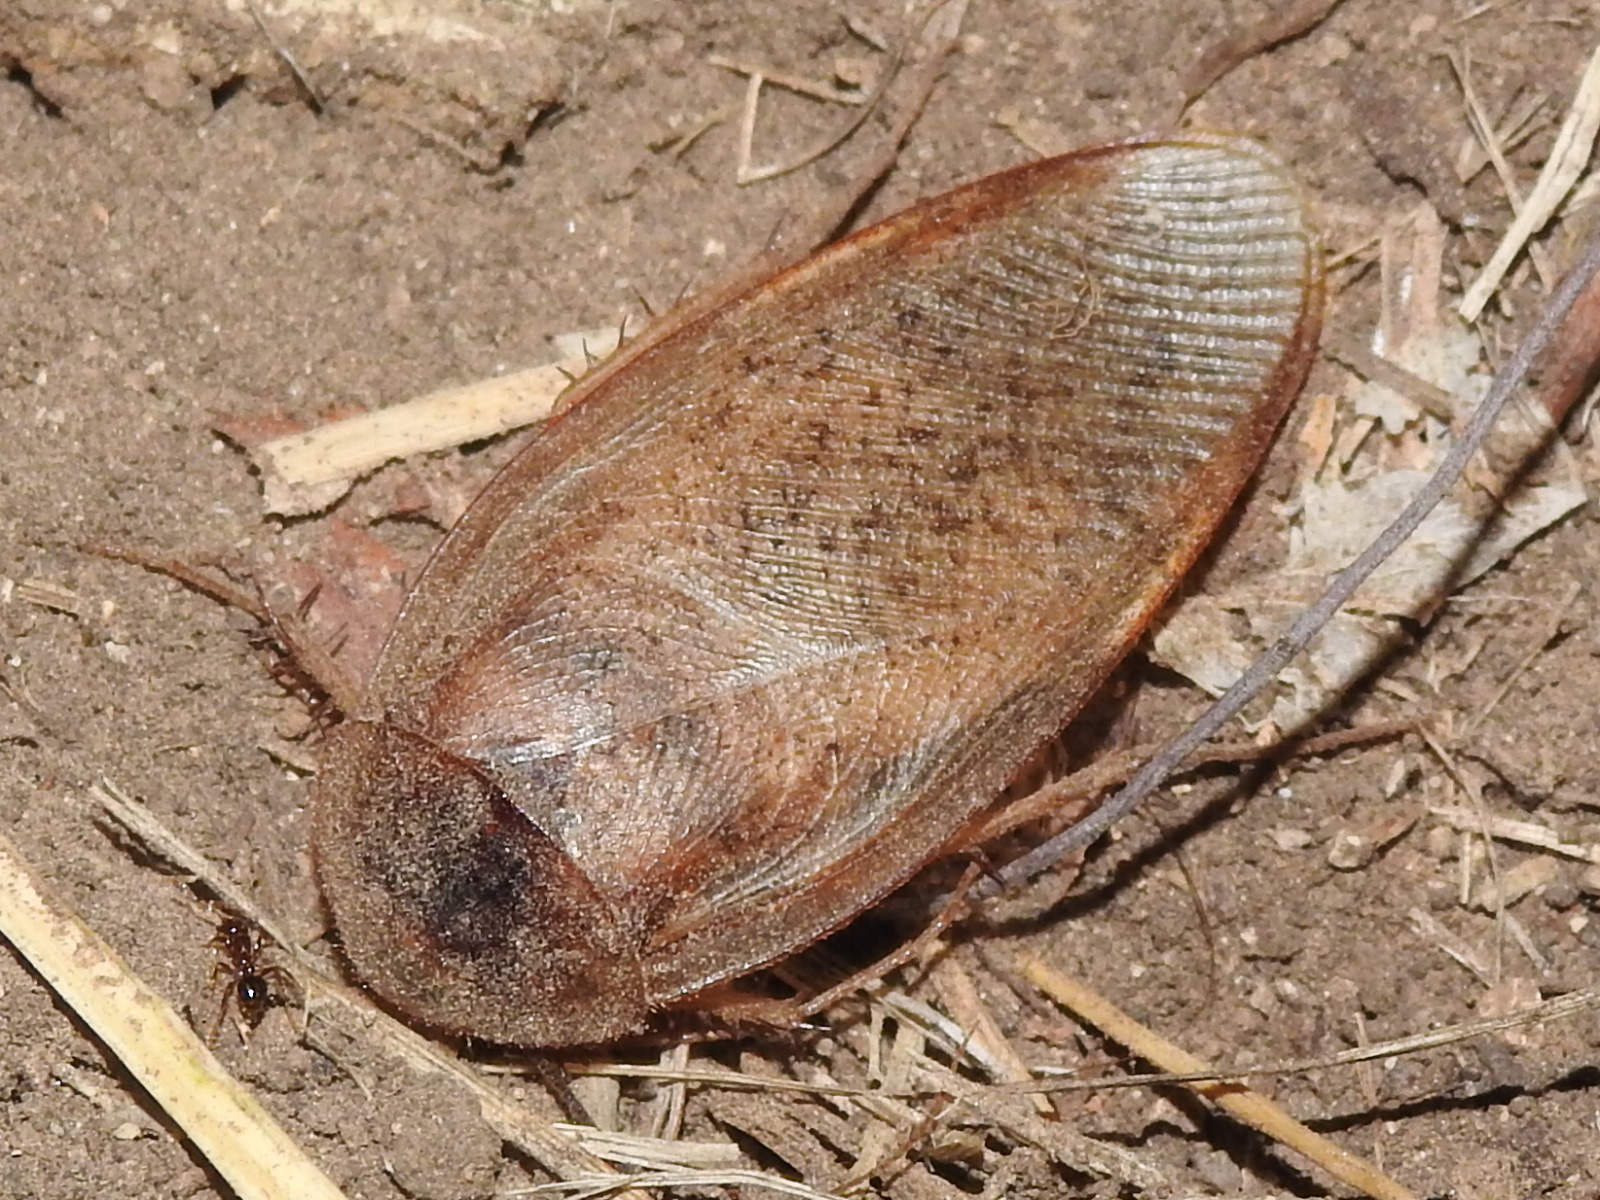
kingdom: Animalia
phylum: Arthropoda
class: Insecta
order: Blattodea
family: Corydiidae
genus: Arenivaga
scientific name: Arenivaga bolliana
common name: Boll's sand cockroach
